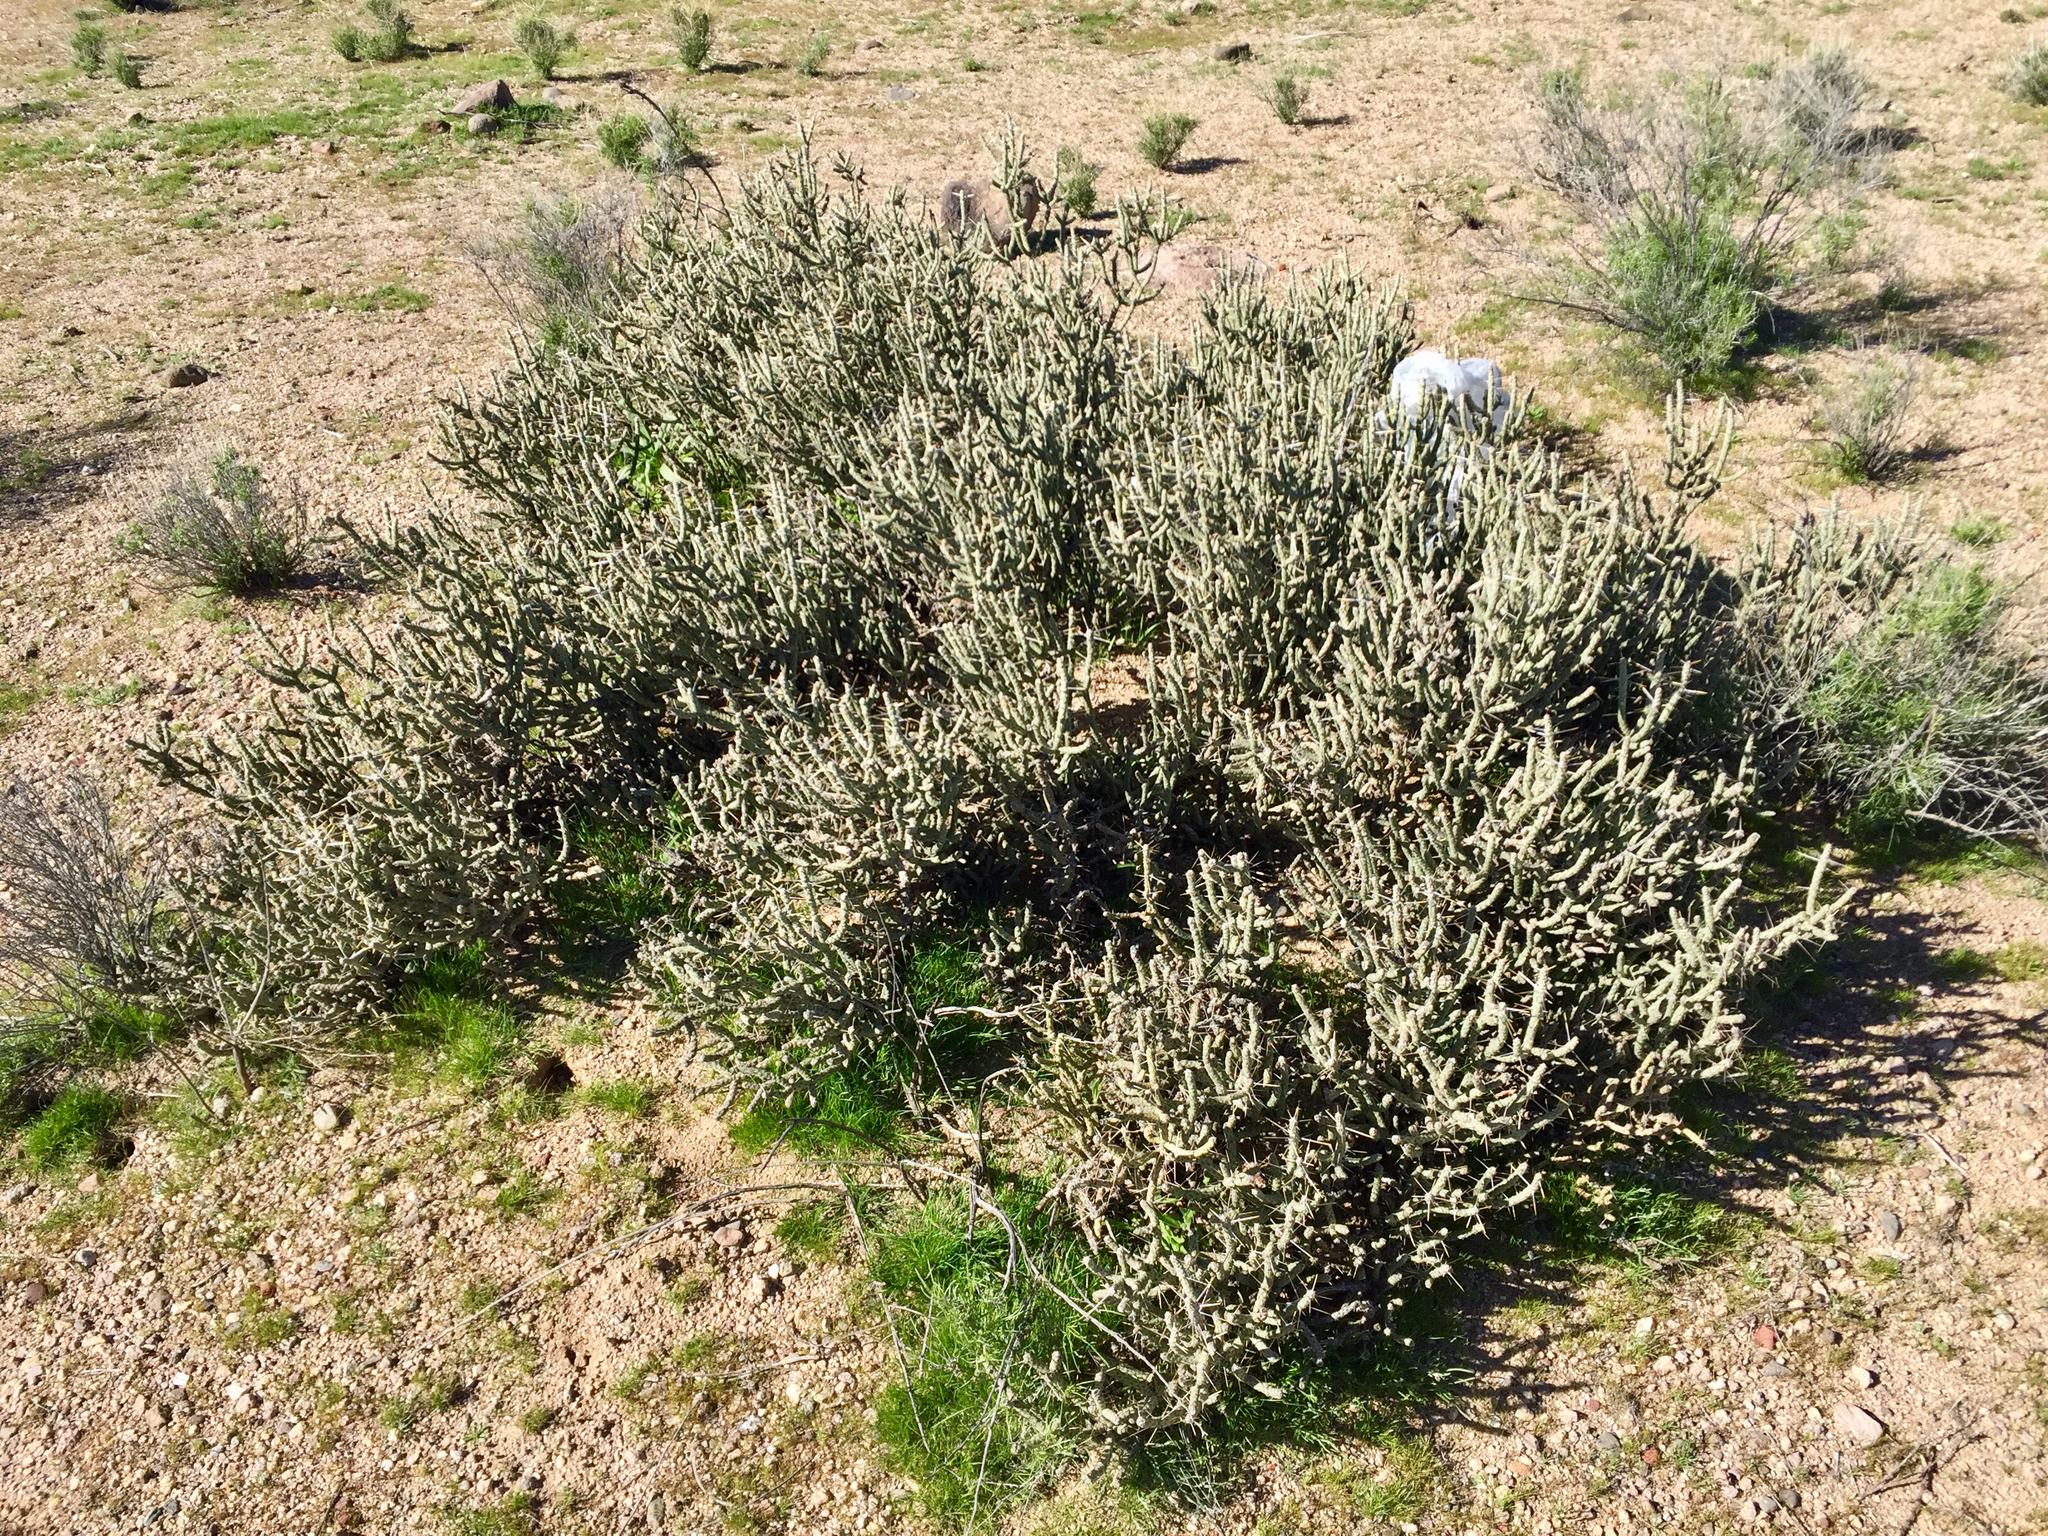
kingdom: Plantae
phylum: Tracheophyta
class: Magnoliopsida
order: Caryophyllales
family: Cactaceae
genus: Cylindropuntia
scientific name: Cylindropuntia ramosissima
